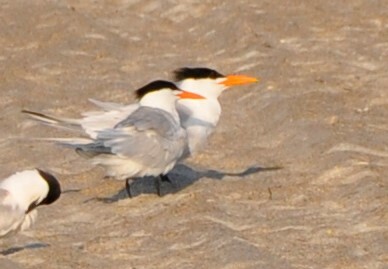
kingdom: Animalia
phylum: Chordata
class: Aves
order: Charadriiformes
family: Laridae
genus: Thalasseus
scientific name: Thalasseus maximus
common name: Royal tern
